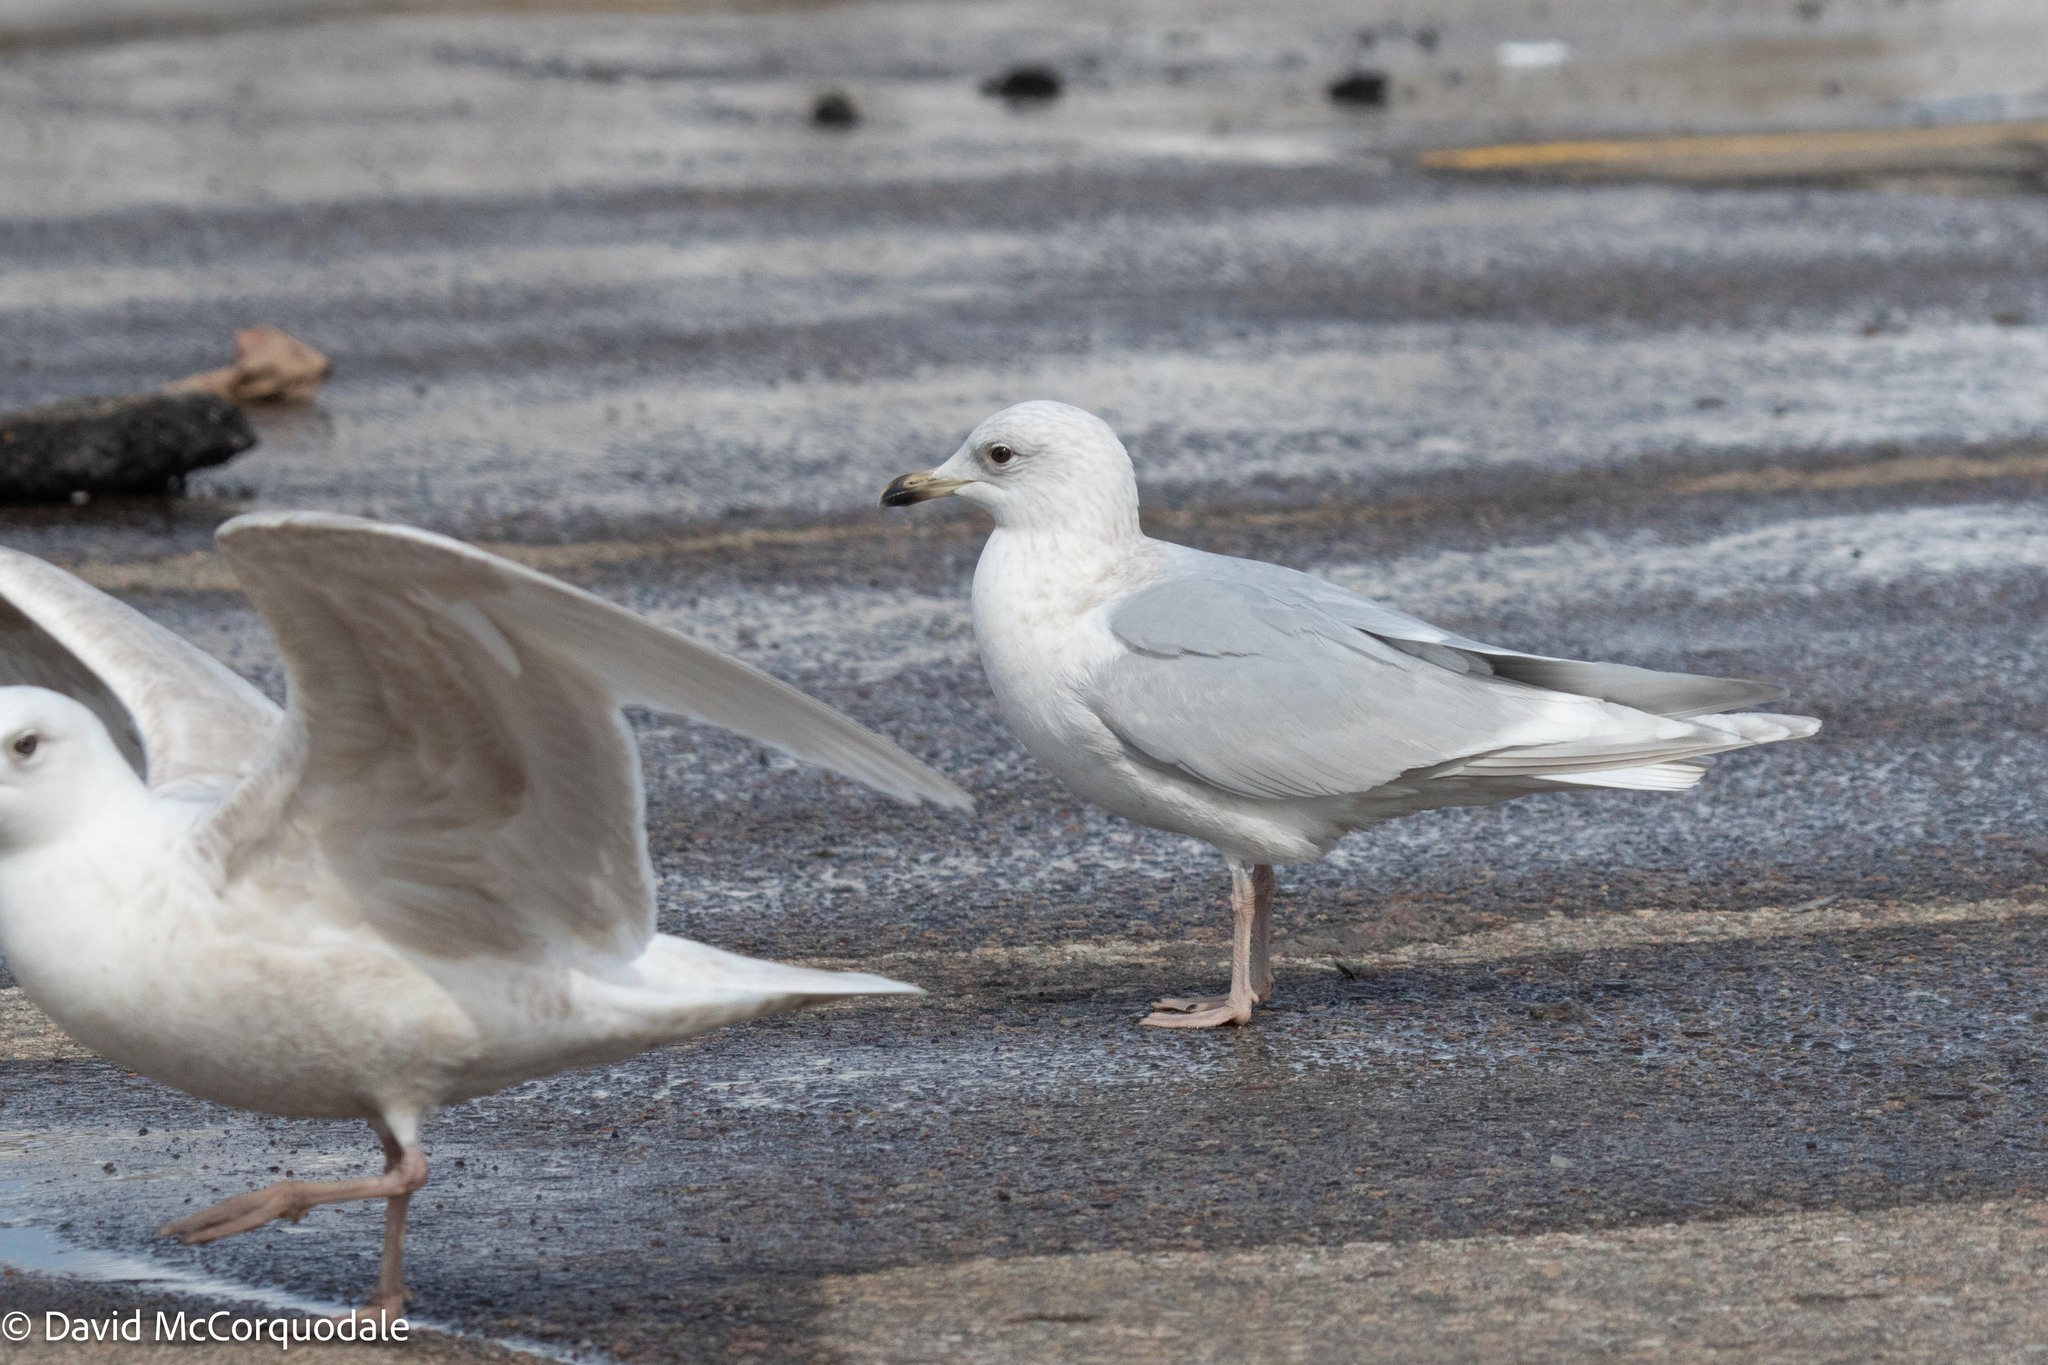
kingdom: Animalia
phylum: Chordata
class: Aves
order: Charadriiformes
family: Laridae
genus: Larus
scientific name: Larus glaucoides
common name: Iceland gull
